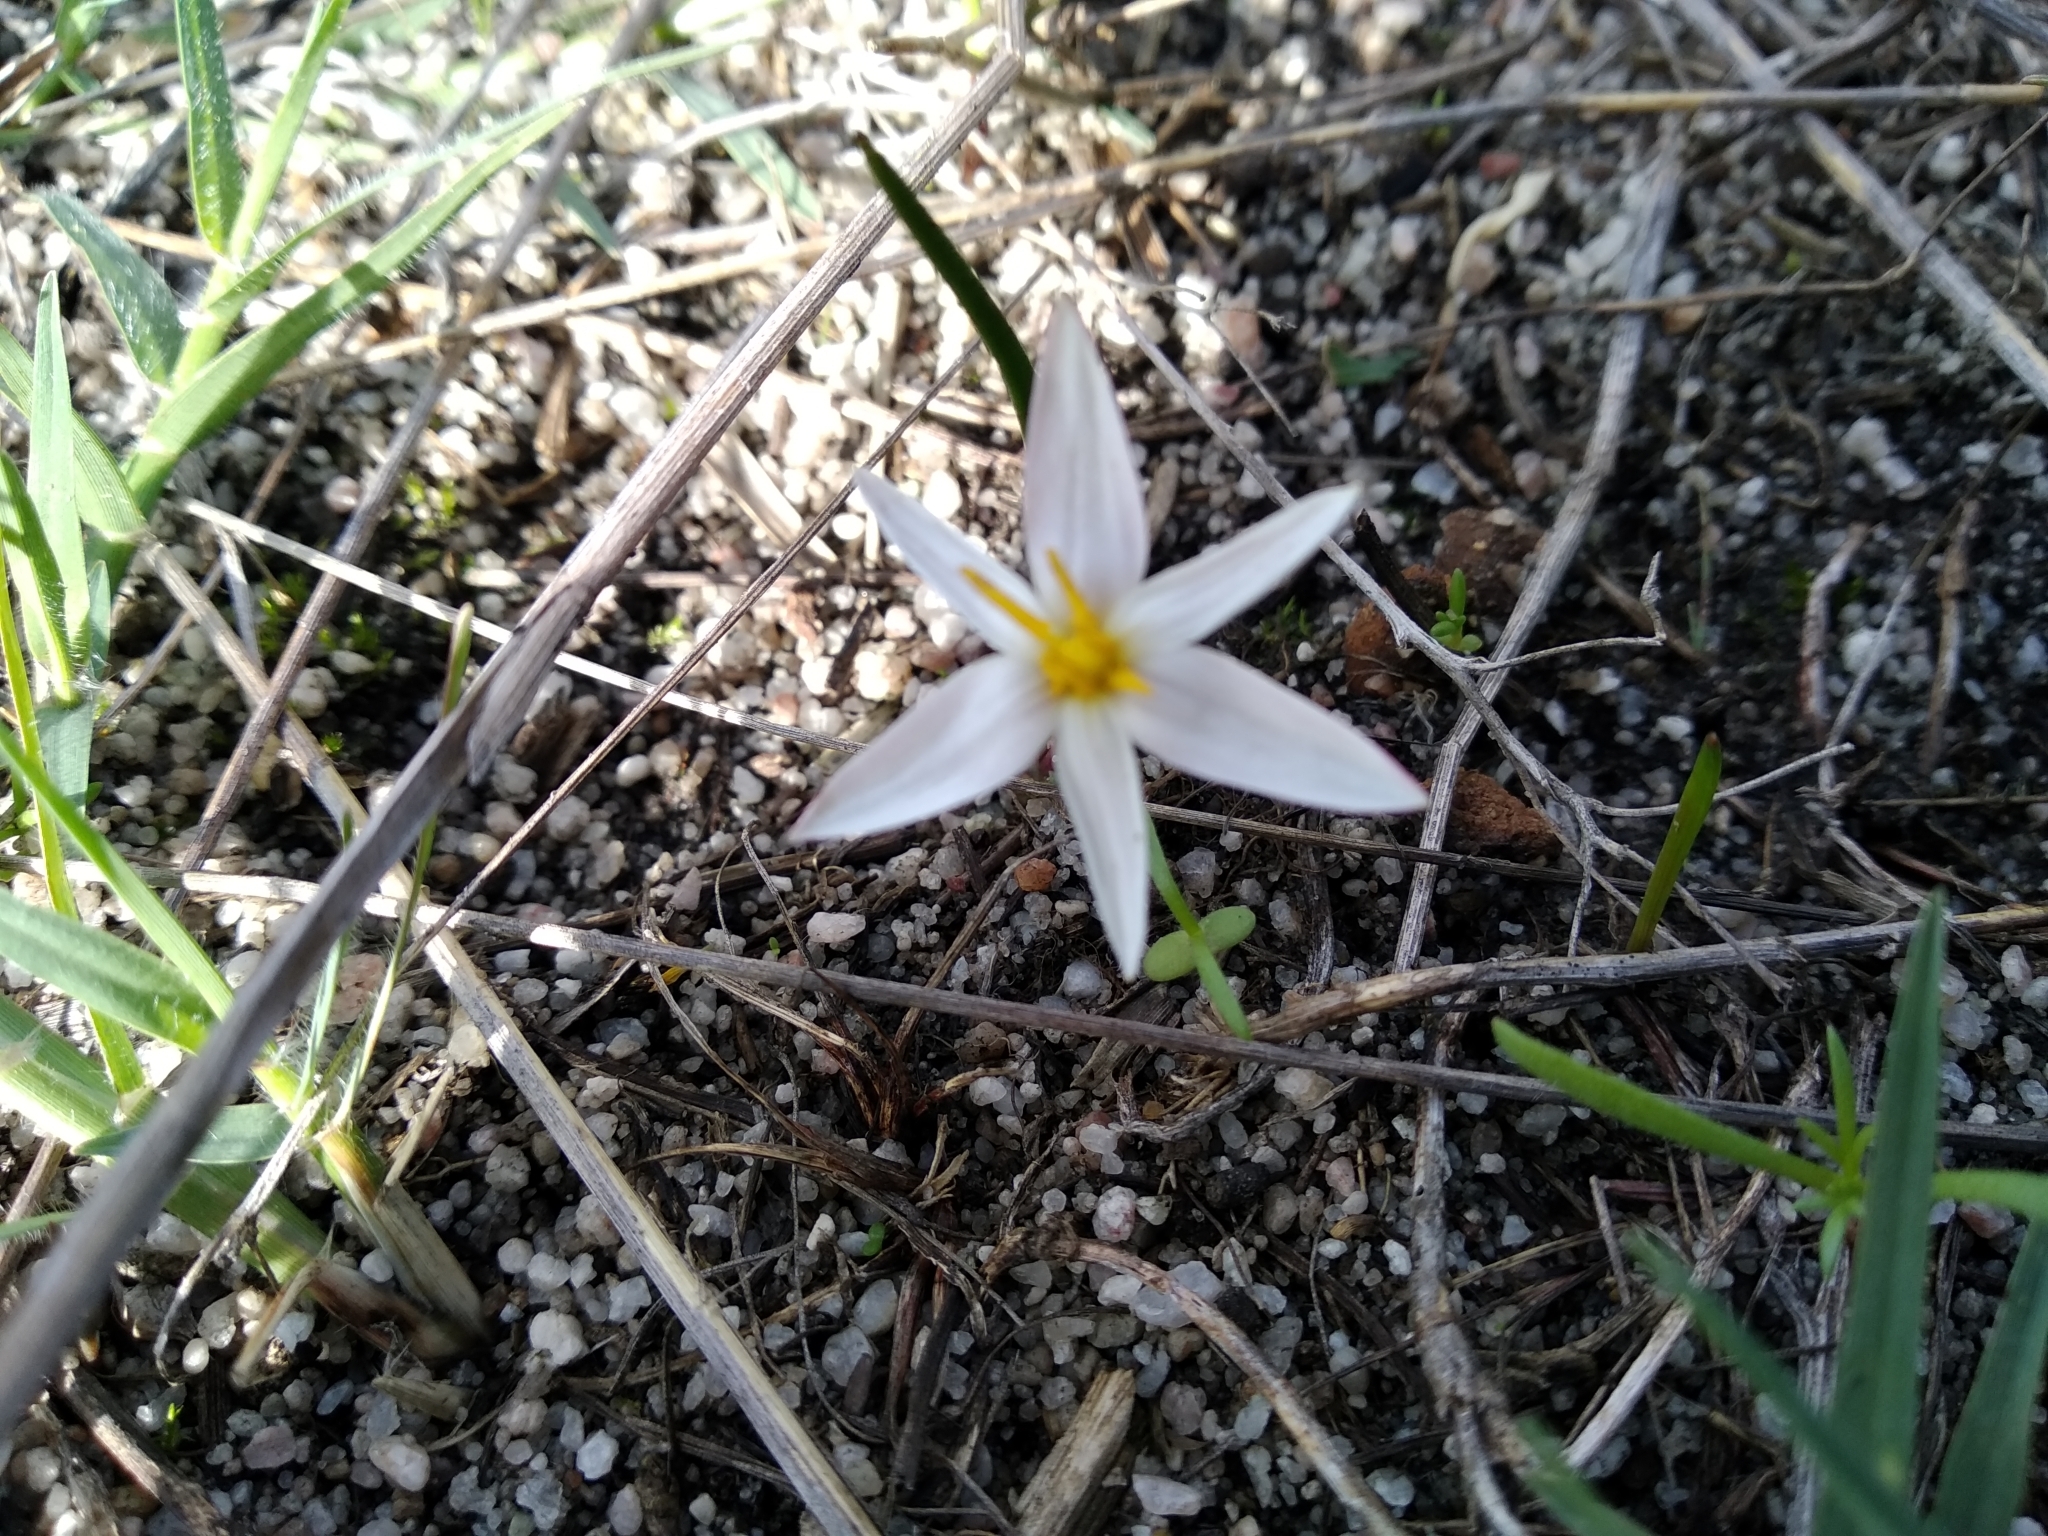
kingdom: Plantae
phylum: Tracheophyta
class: Liliopsida
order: Asparagales
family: Hypoxidaceae
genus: Pauridia
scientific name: Pauridia alba
